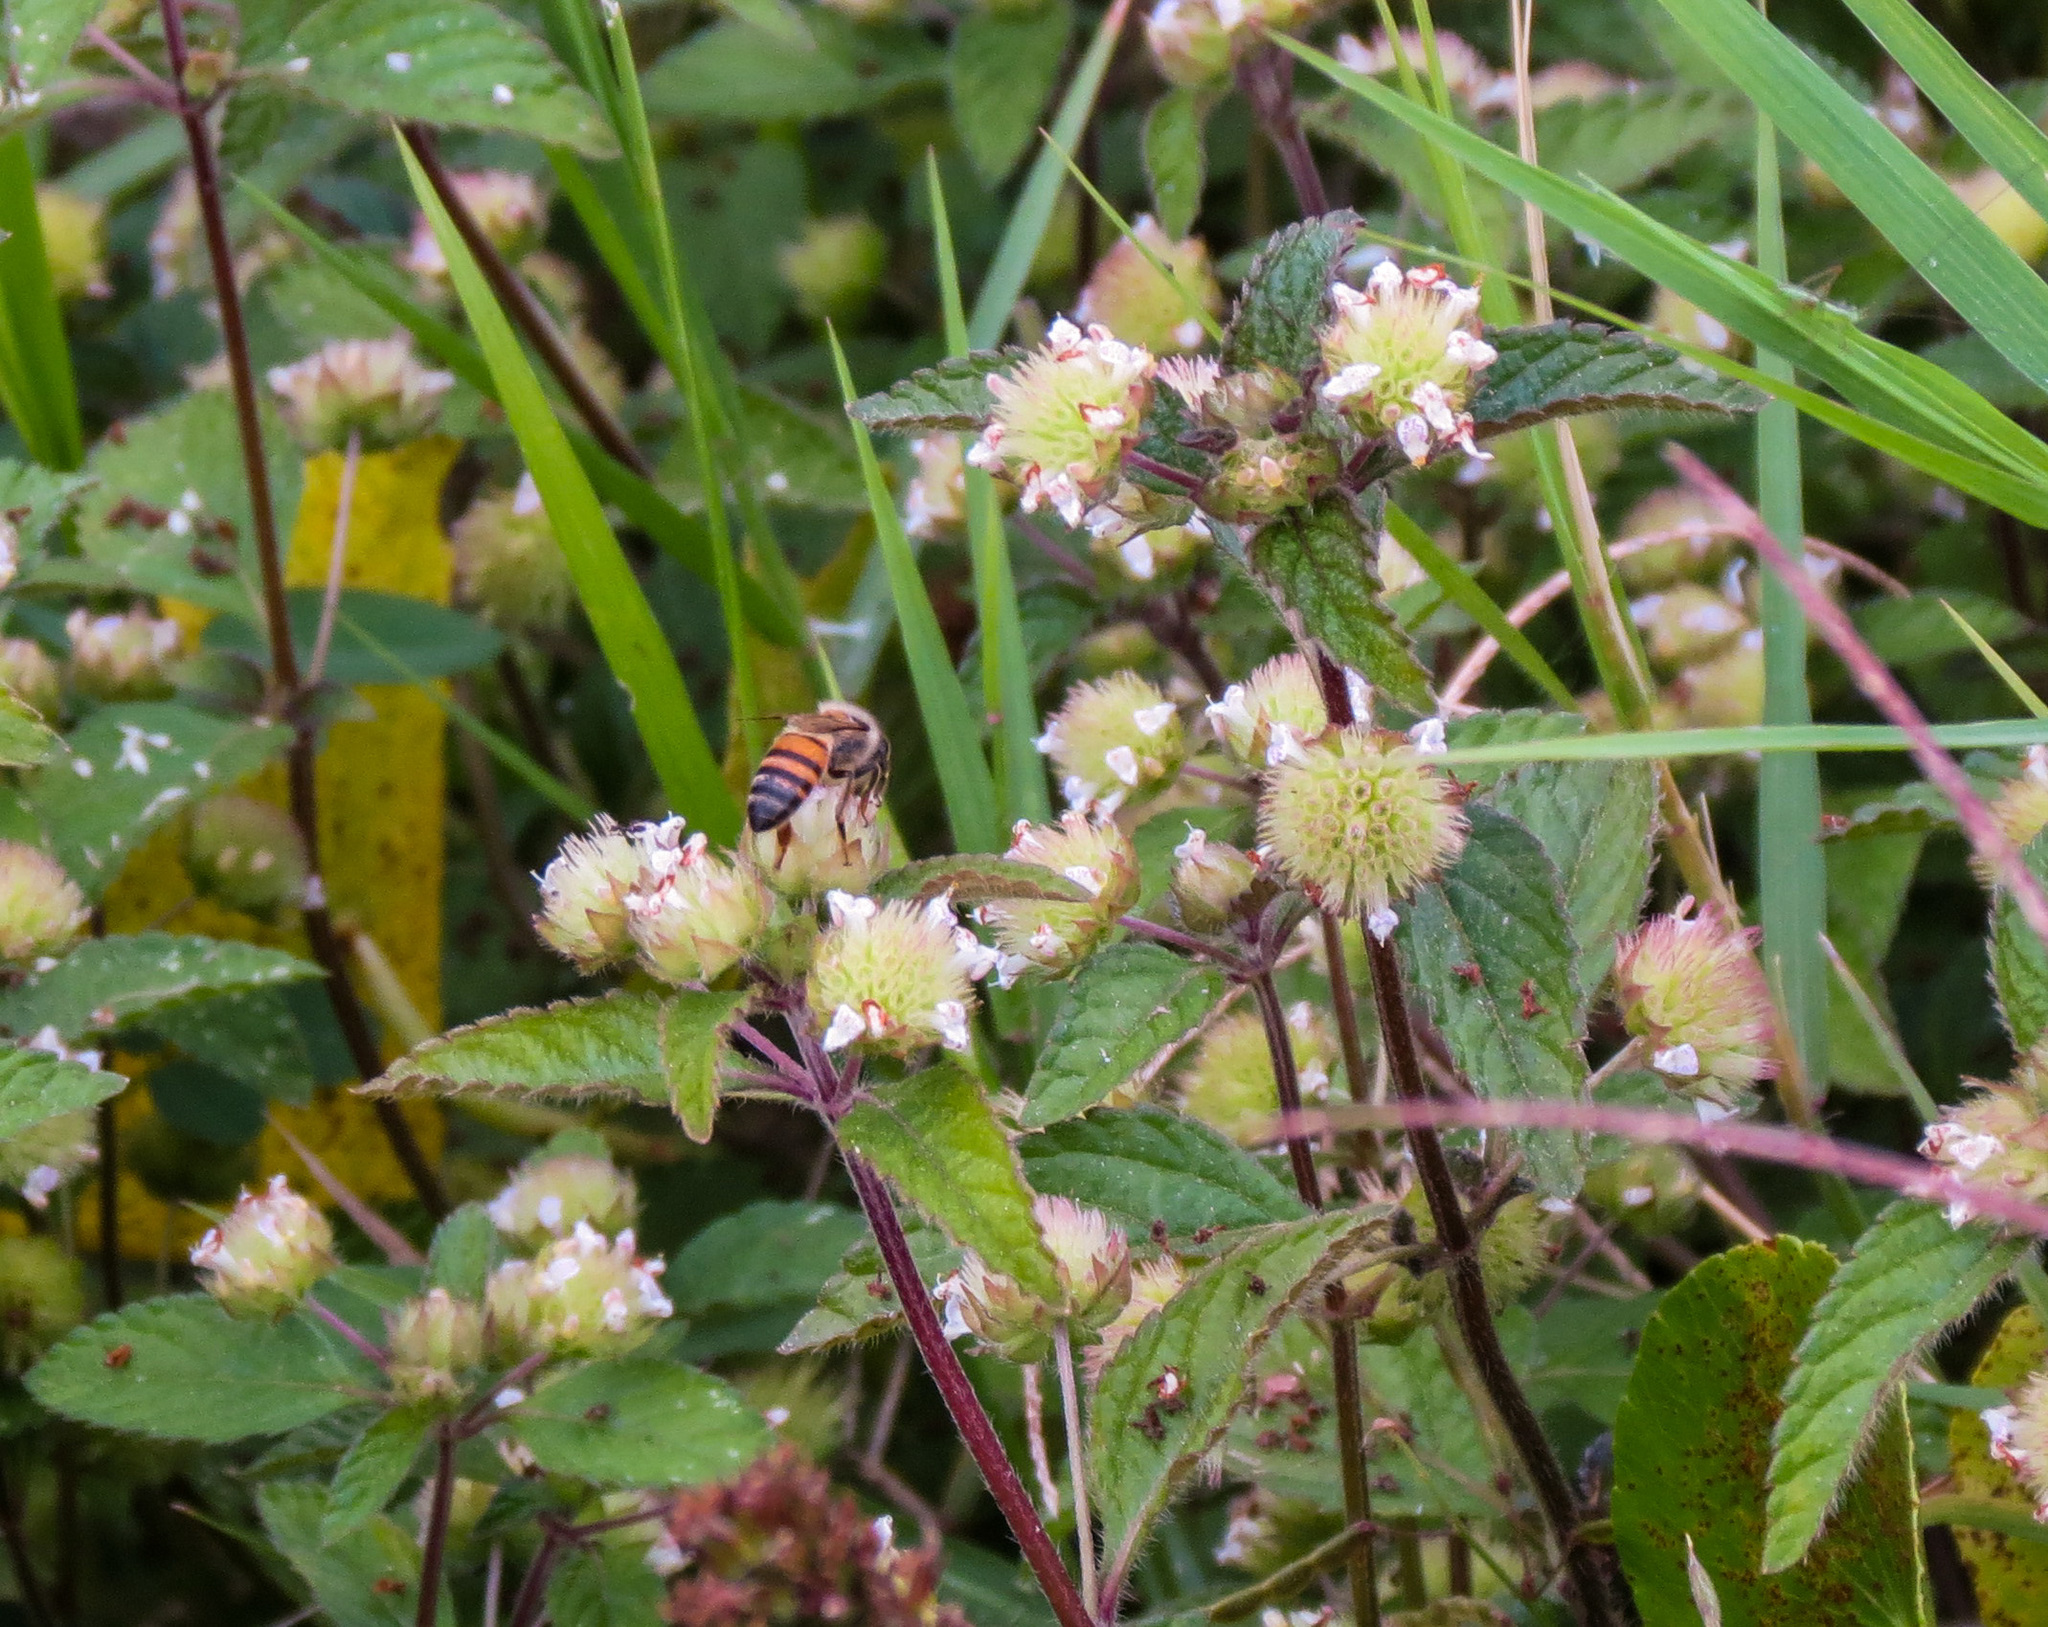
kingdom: Animalia
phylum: Arthropoda
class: Insecta
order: Hymenoptera
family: Apidae
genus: Apis
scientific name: Apis mellifera
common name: Honey bee
